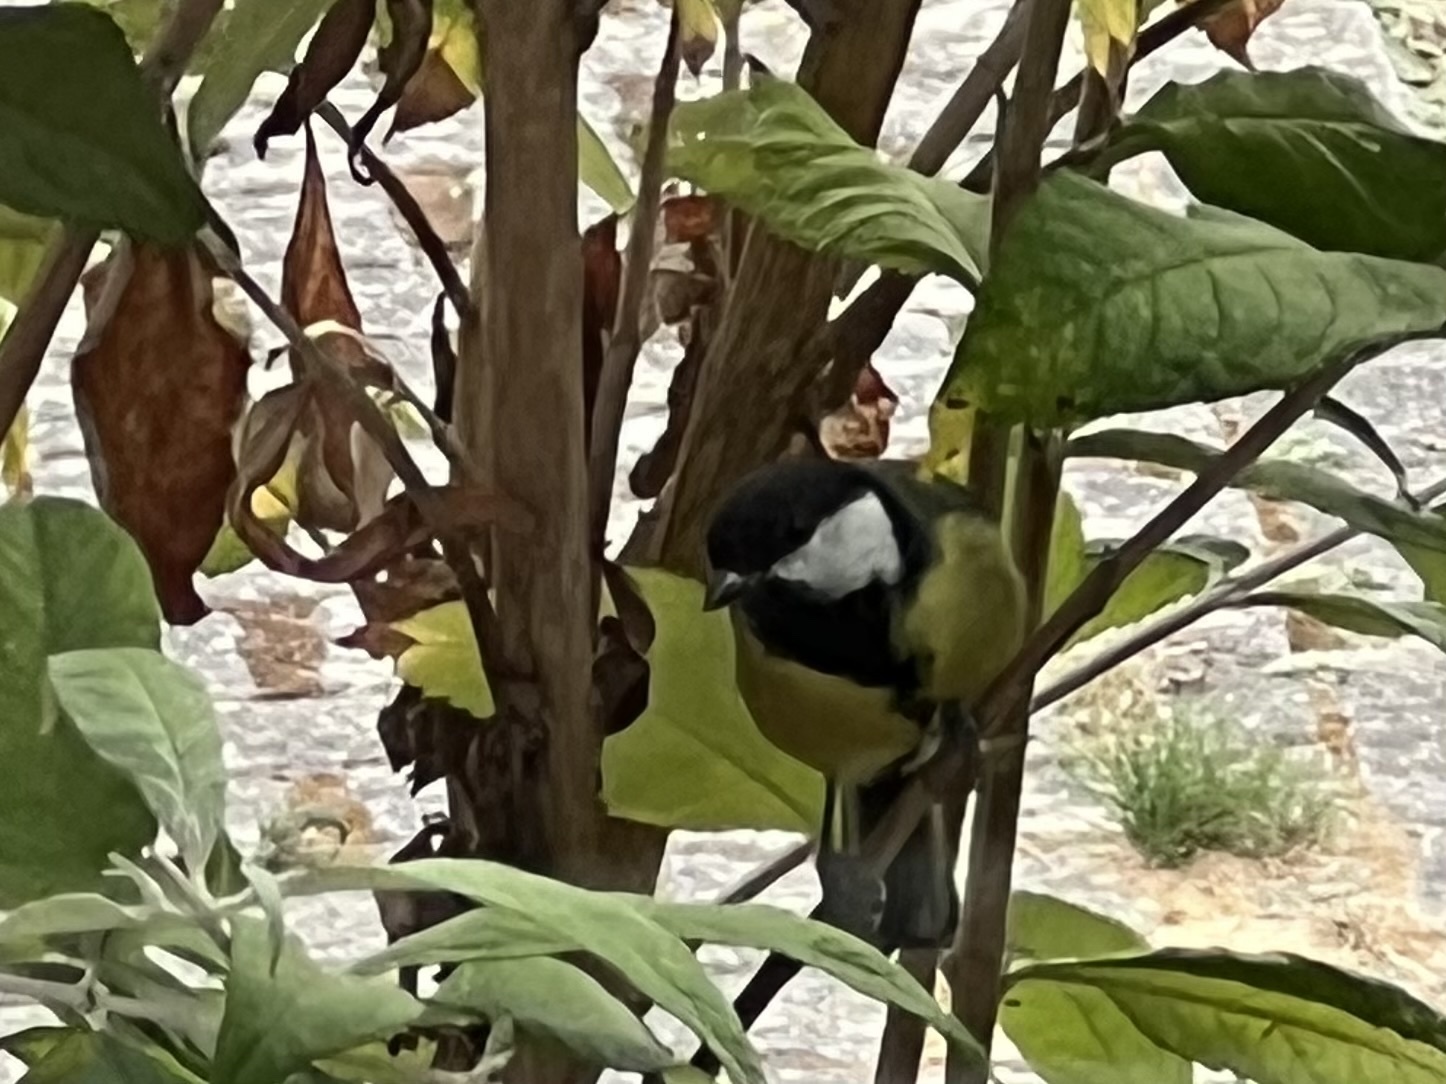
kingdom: Animalia
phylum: Chordata
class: Aves
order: Passeriformes
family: Paridae
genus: Parus
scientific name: Parus major
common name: Great tit
